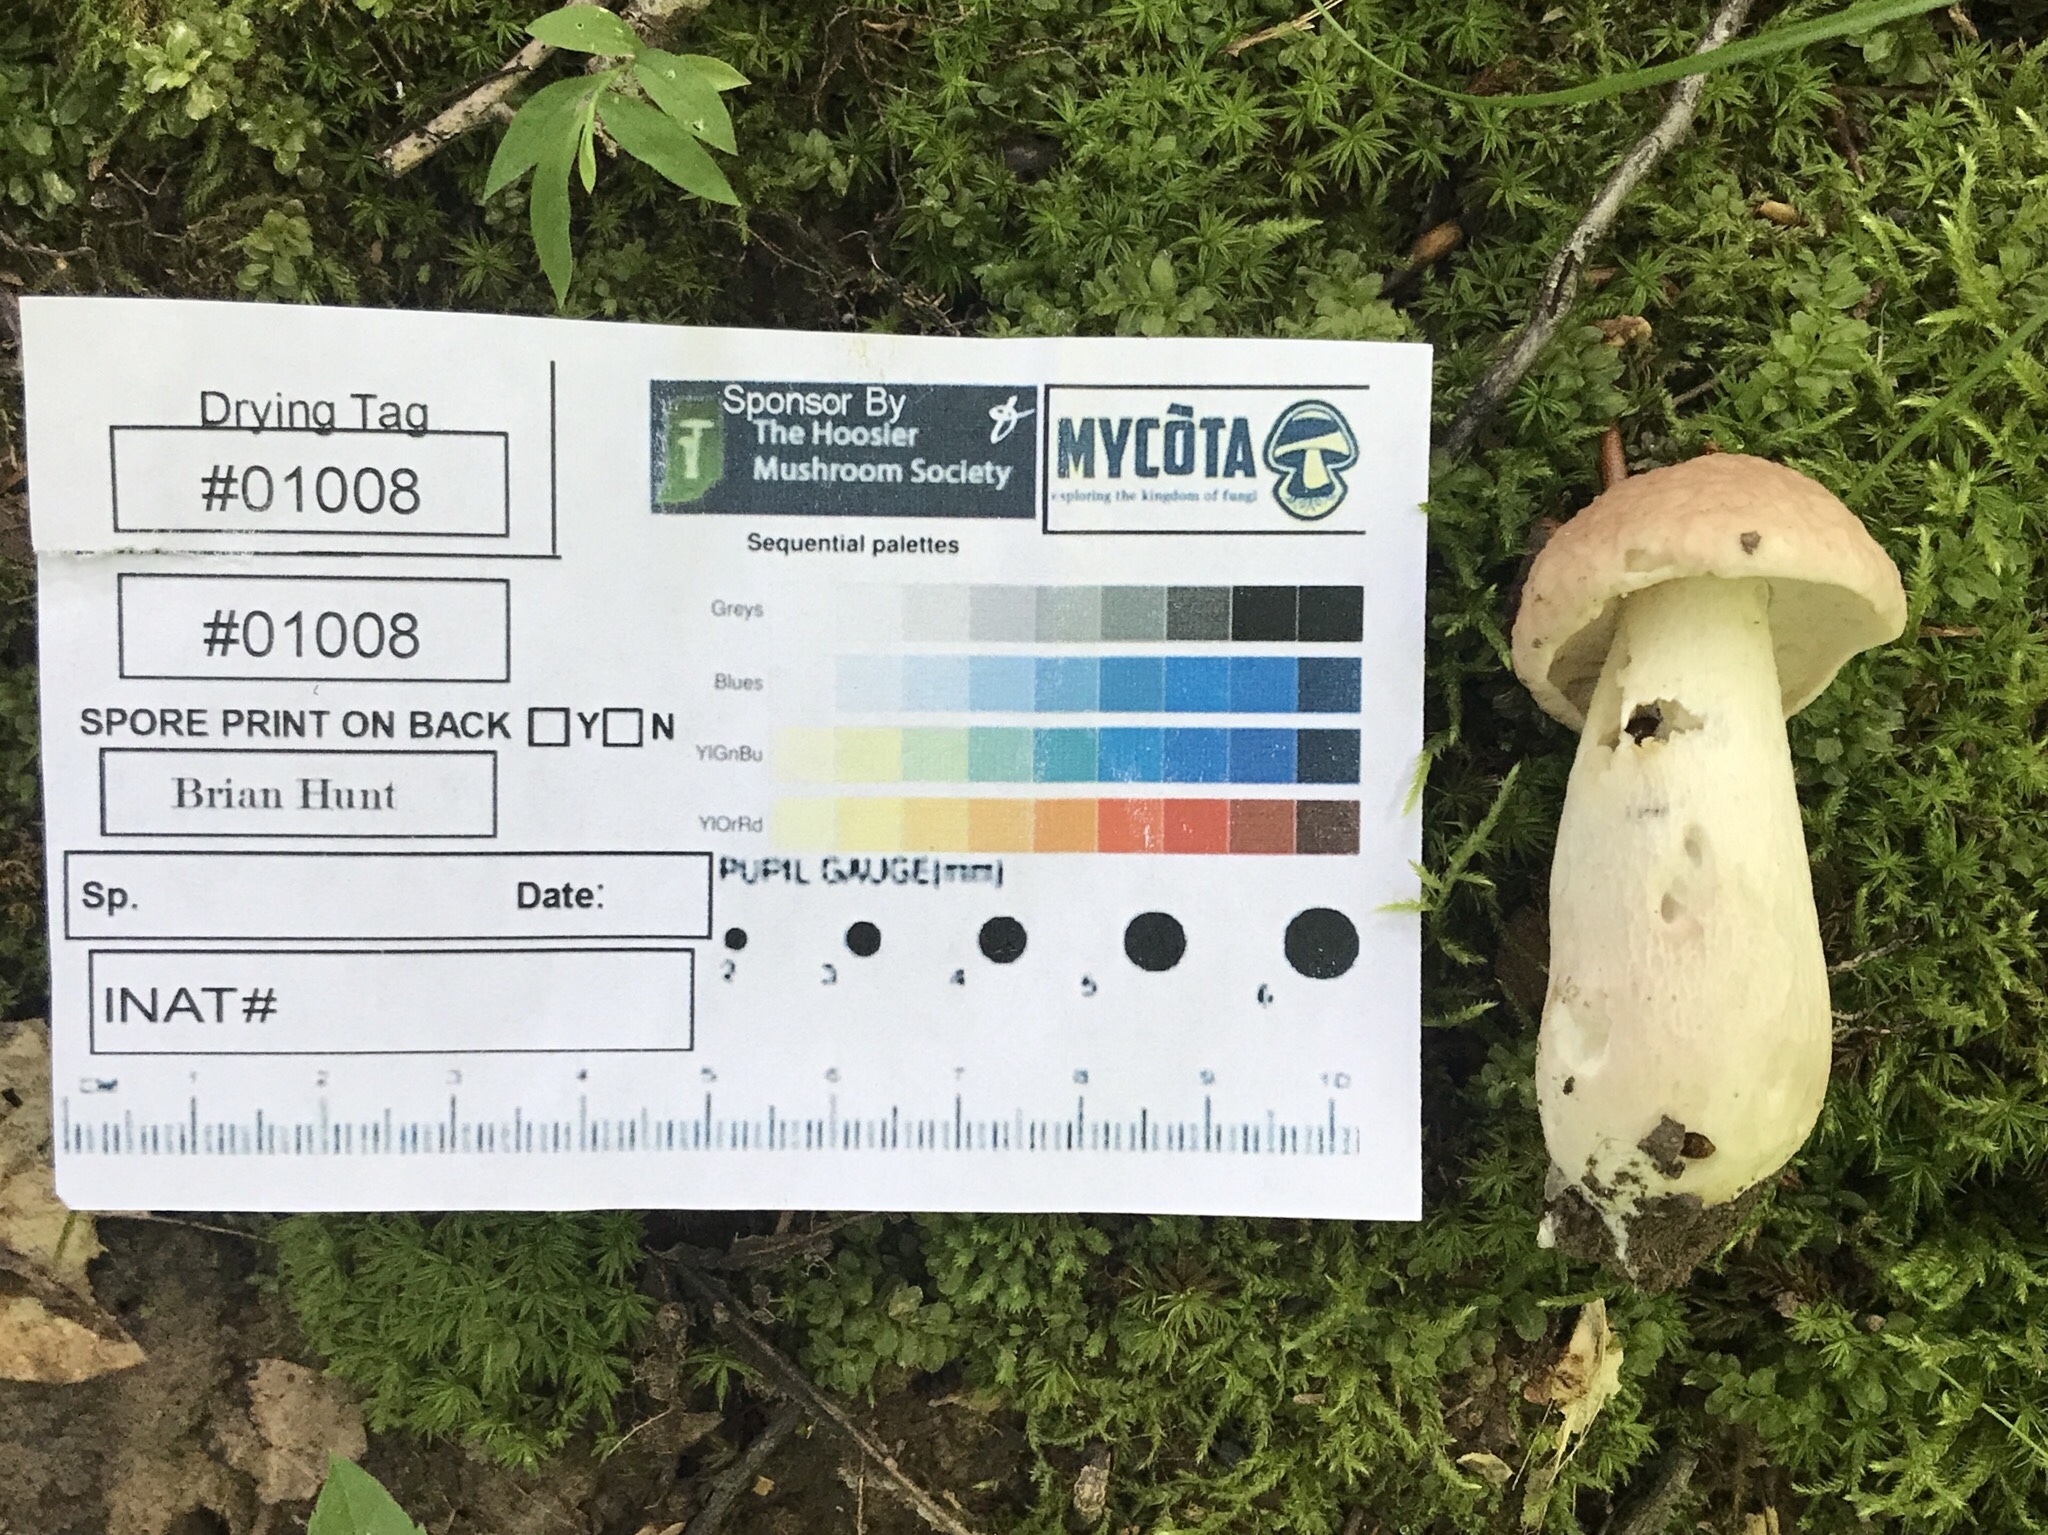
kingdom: Fungi
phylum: Basidiomycota
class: Agaricomycetes
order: Boletales
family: Boletaceae
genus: Xanthoconium
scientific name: Xanthoconium separans
